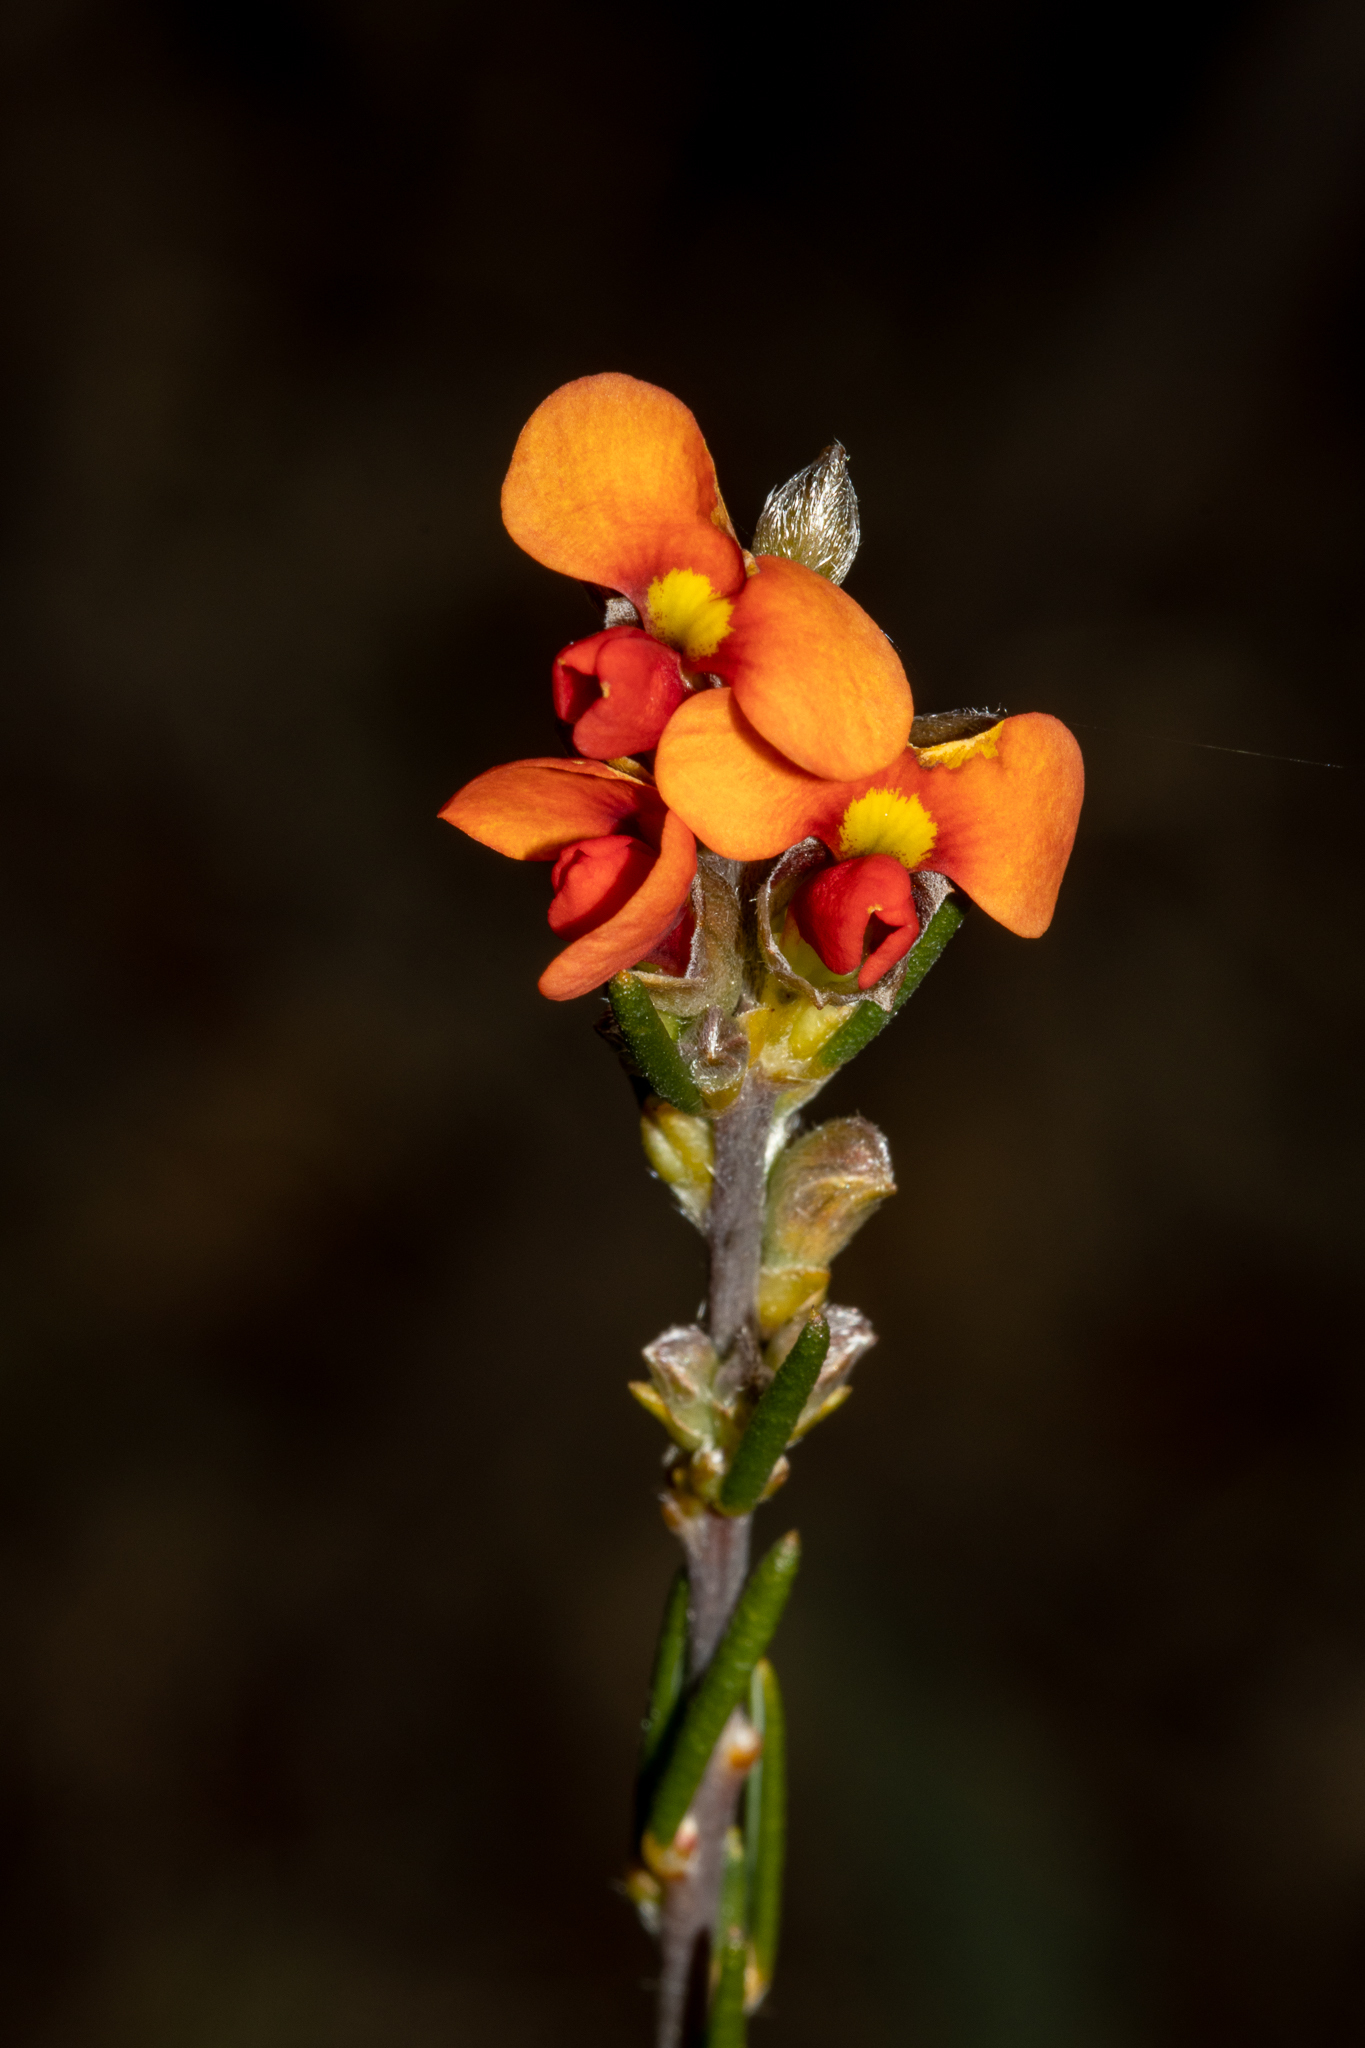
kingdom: Plantae
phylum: Tracheophyta
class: Magnoliopsida
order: Fabales
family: Fabaceae
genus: Dillwynia
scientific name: Dillwynia sericea
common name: Showy parrot-pea
